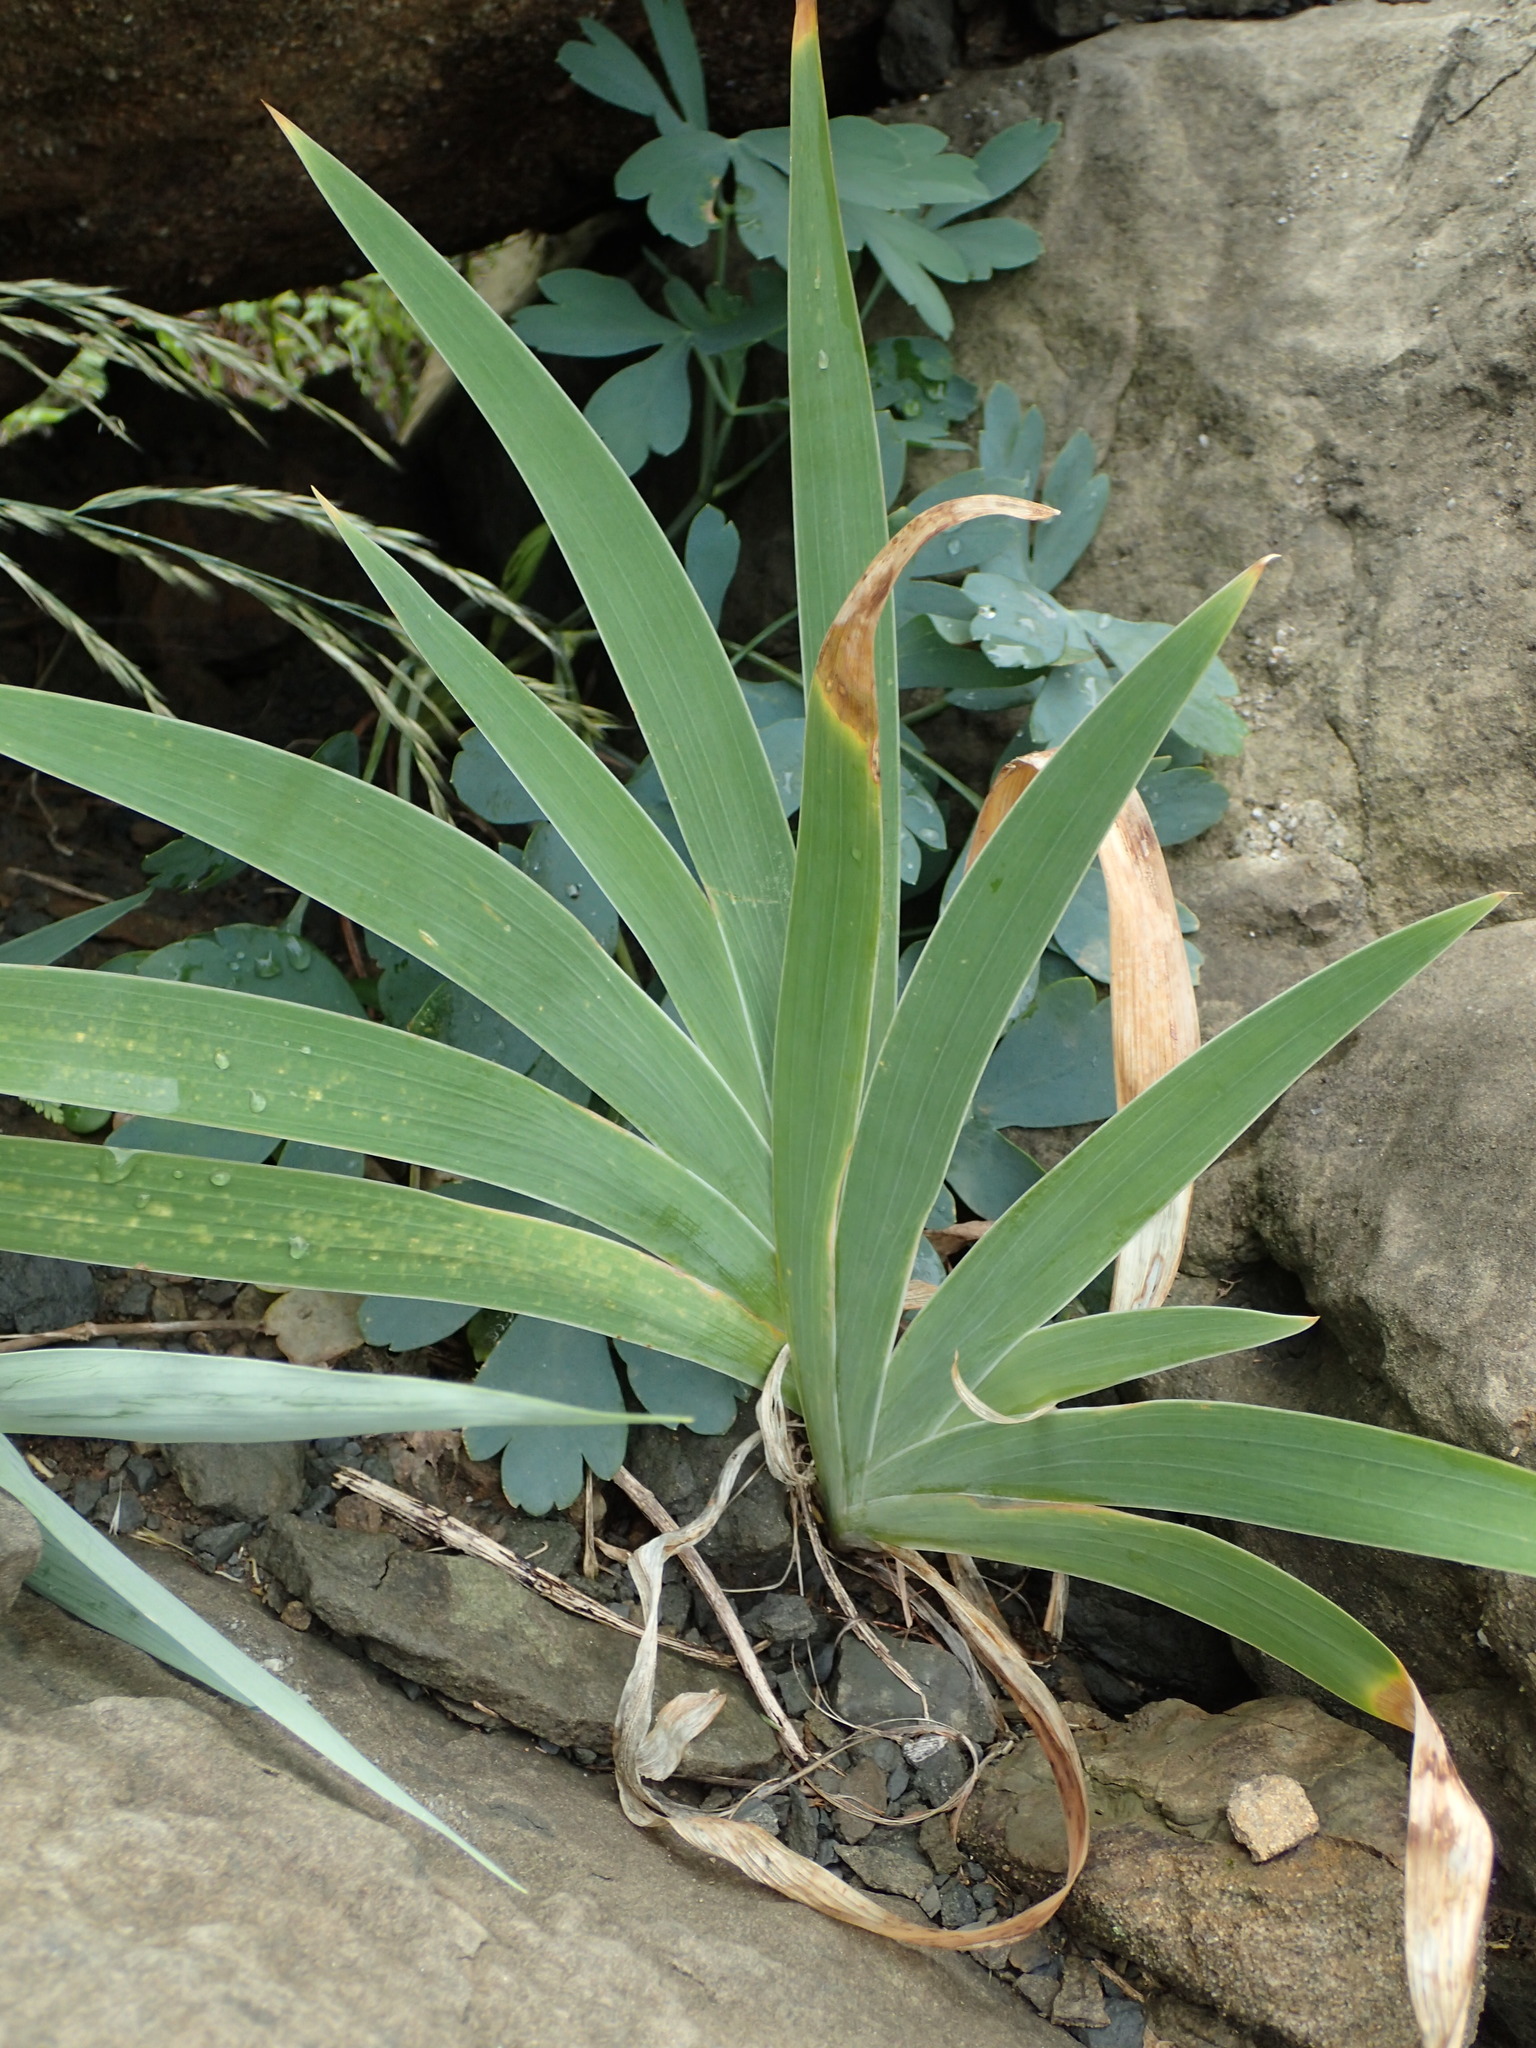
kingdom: Plantae
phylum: Tracheophyta
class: Liliopsida
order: Asparagales
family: Iridaceae
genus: Iris
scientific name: Iris domestica
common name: Belamcanda
